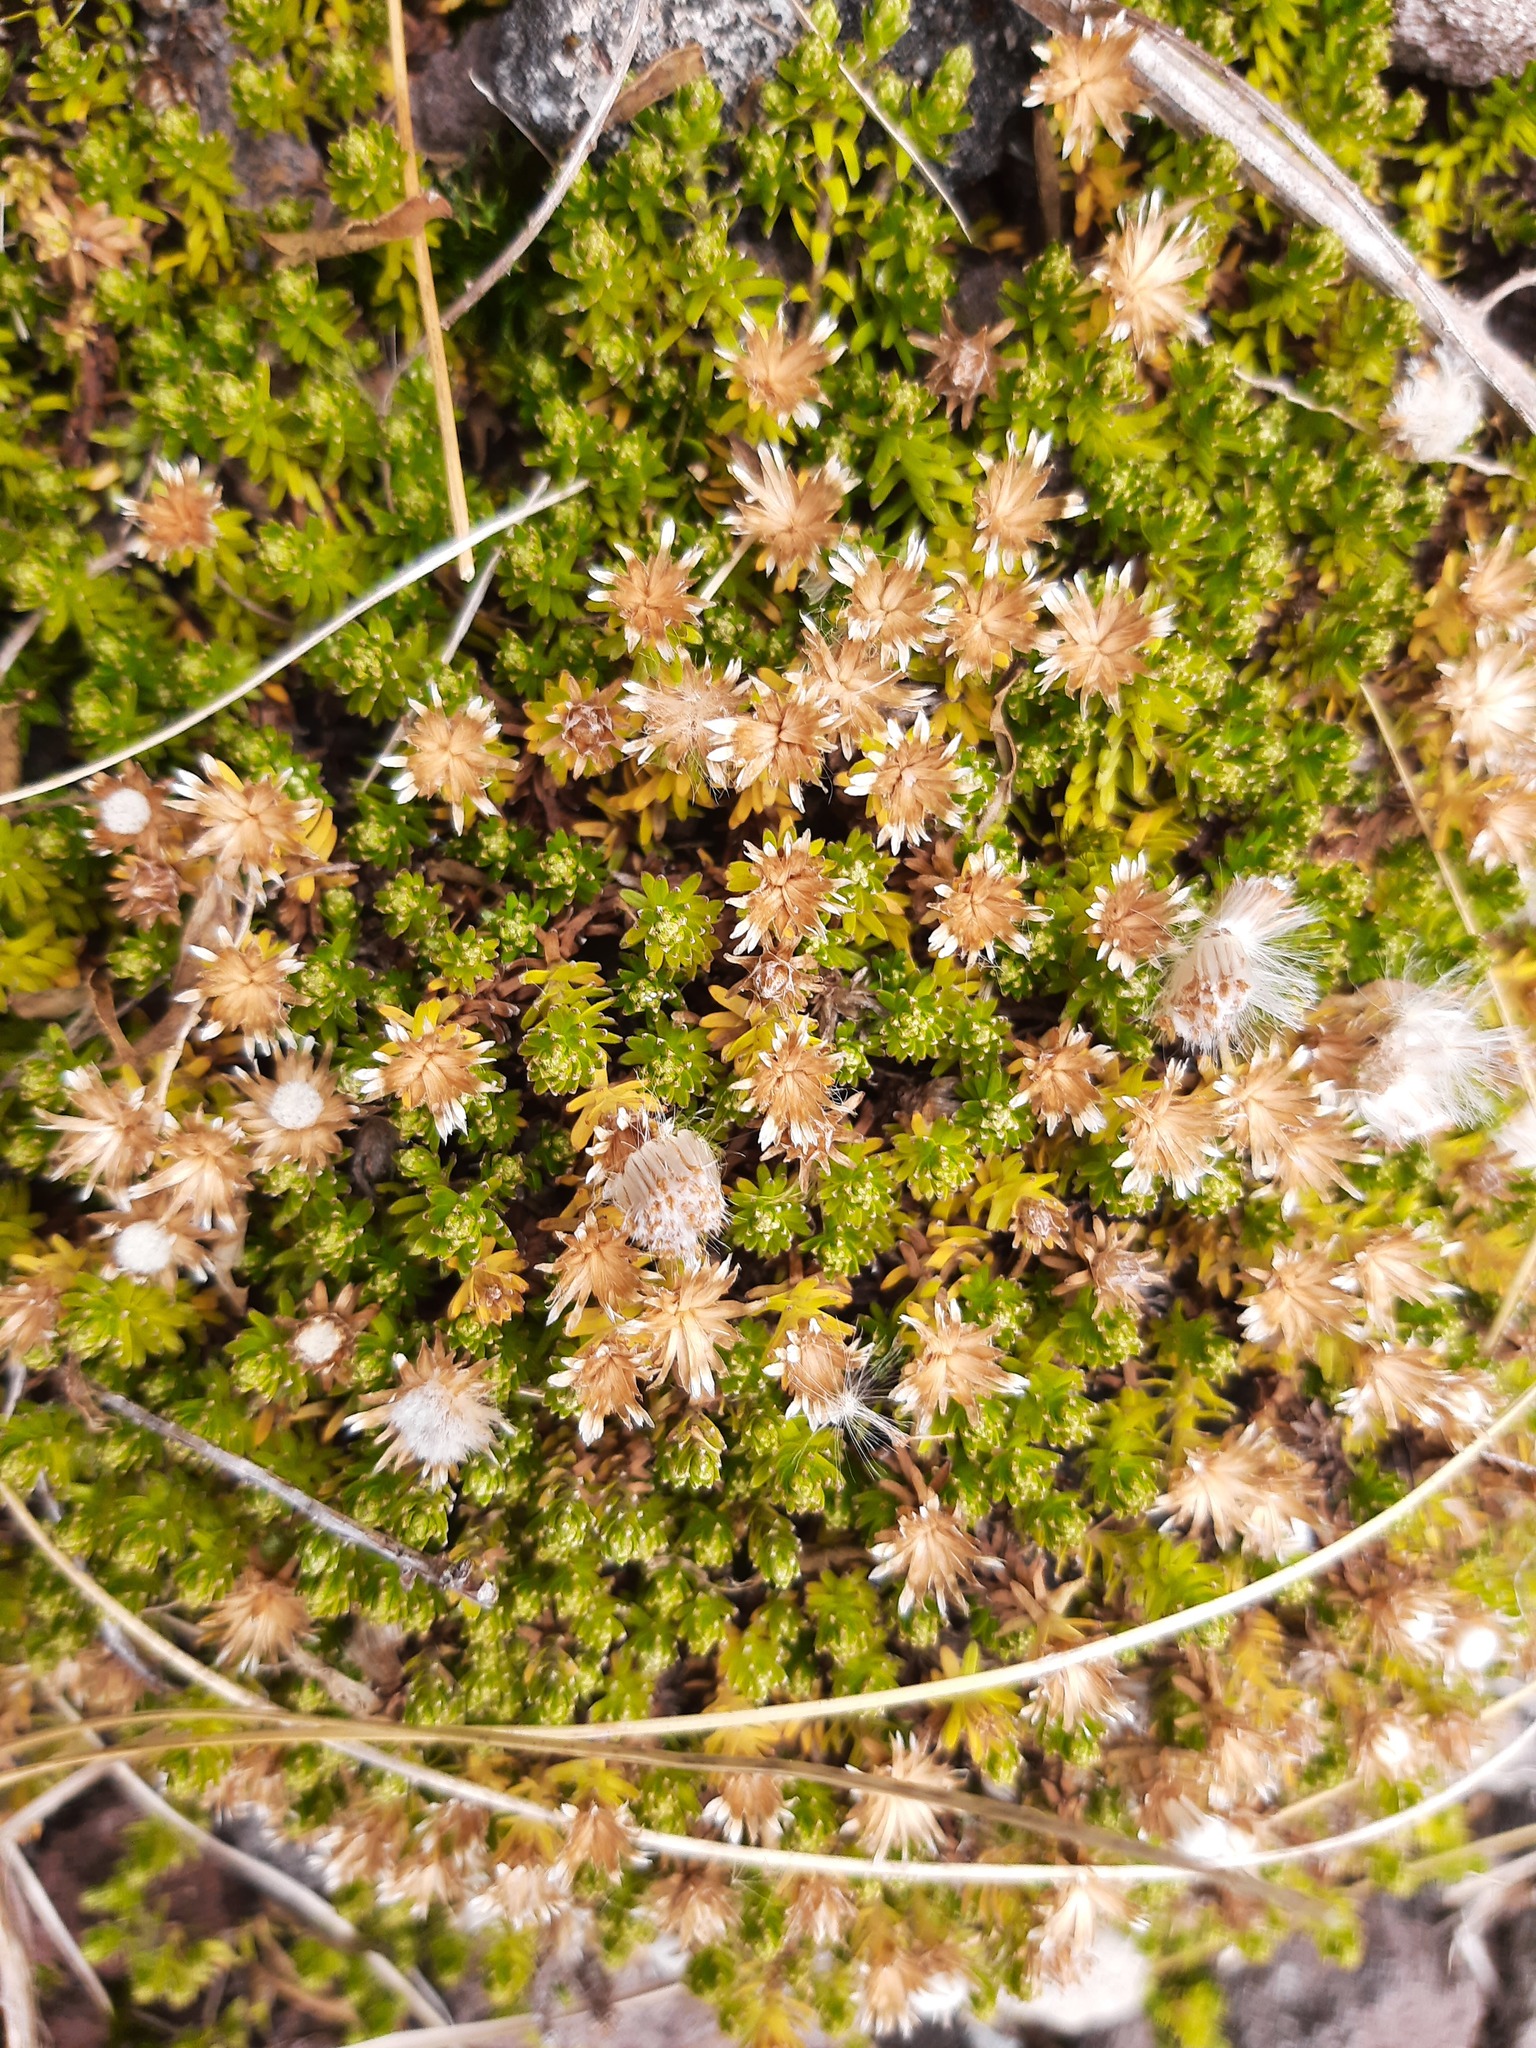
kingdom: Plantae
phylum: Tracheophyta
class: Magnoliopsida
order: Asterales
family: Asteraceae
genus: Raoulia
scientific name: Raoulia glabra
